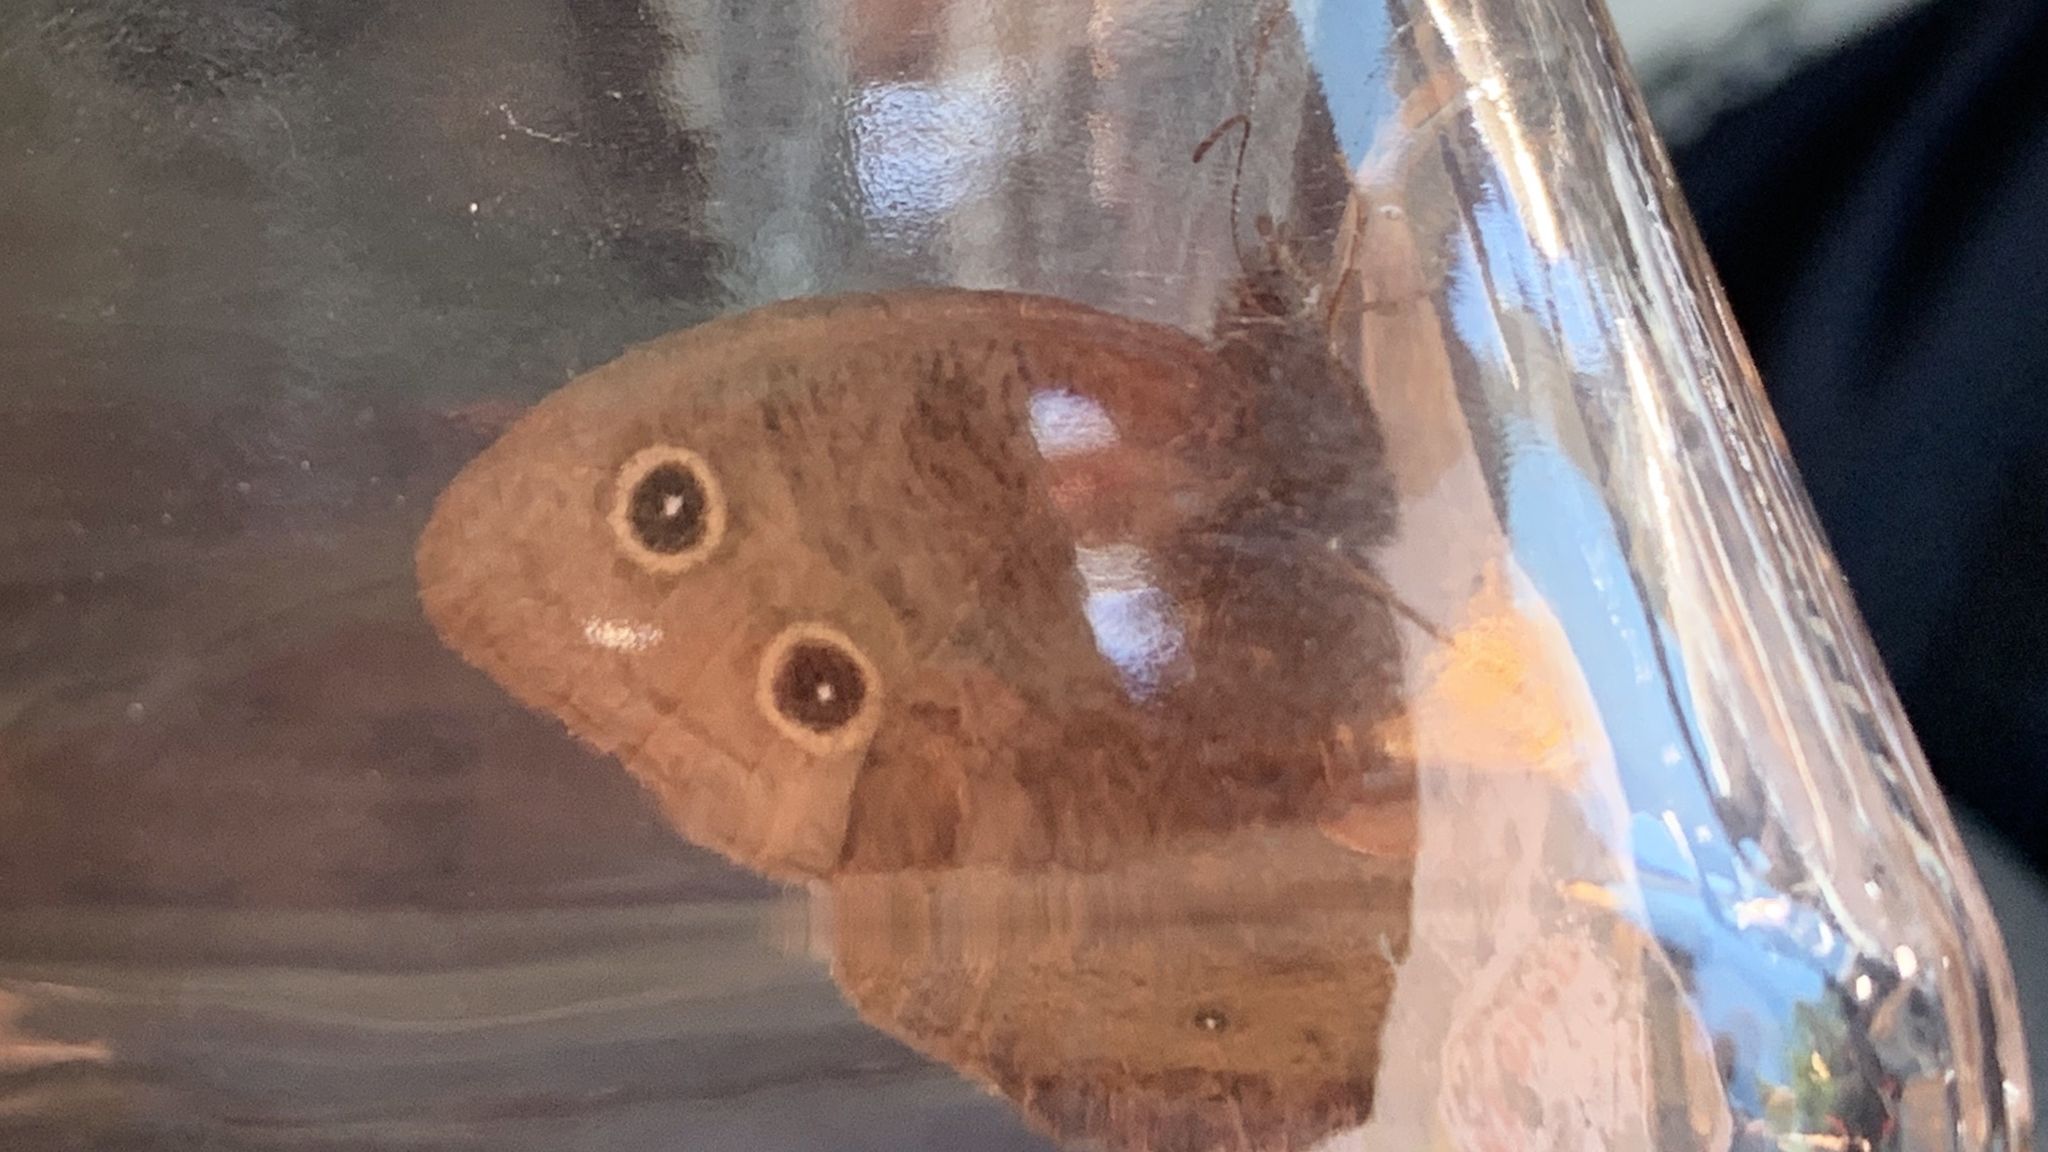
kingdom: Animalia
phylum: Arthropoda
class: Insecta
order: Lepidoptera
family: Nymphalidae
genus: Cercyonis
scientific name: Cercyonis pegala
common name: Common wood-nymph
